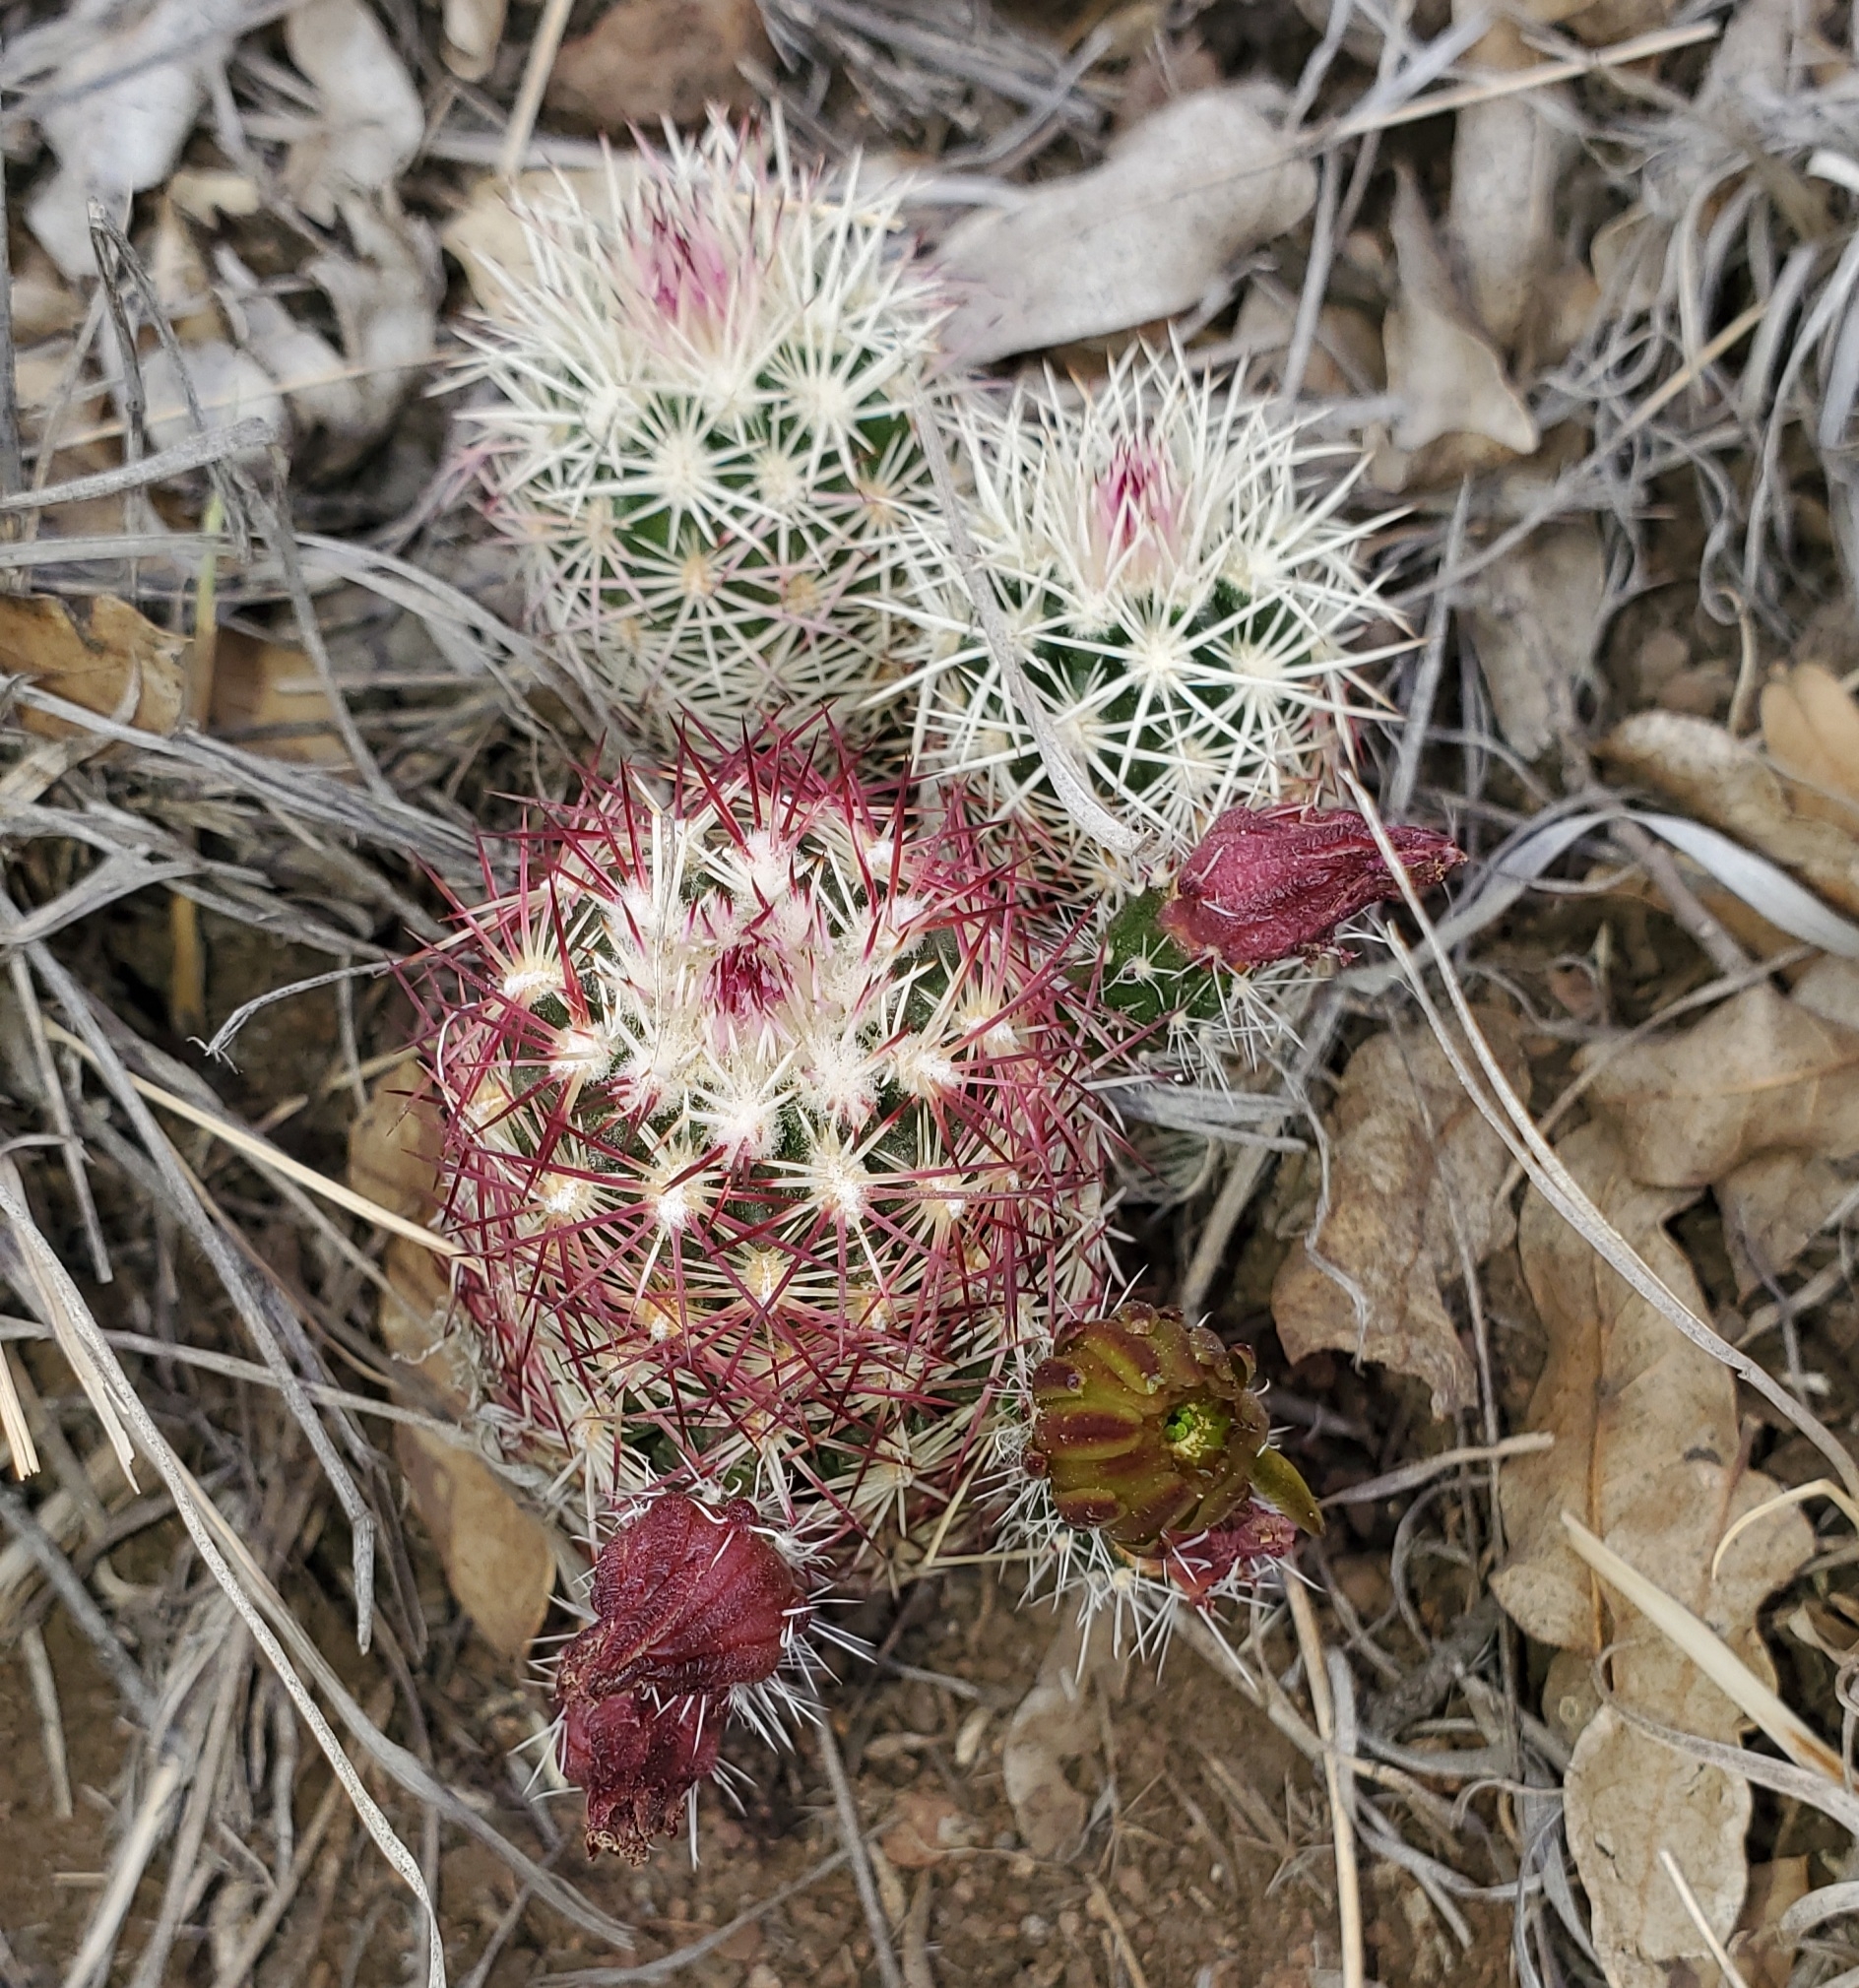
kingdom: Plantae
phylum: Tracheophyta
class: Magnoliopsida
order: Caryophyllales
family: Cactaceae
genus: Echinocereus
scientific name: Echinocereus viridiflorus
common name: Nylon hedgehog cactus
